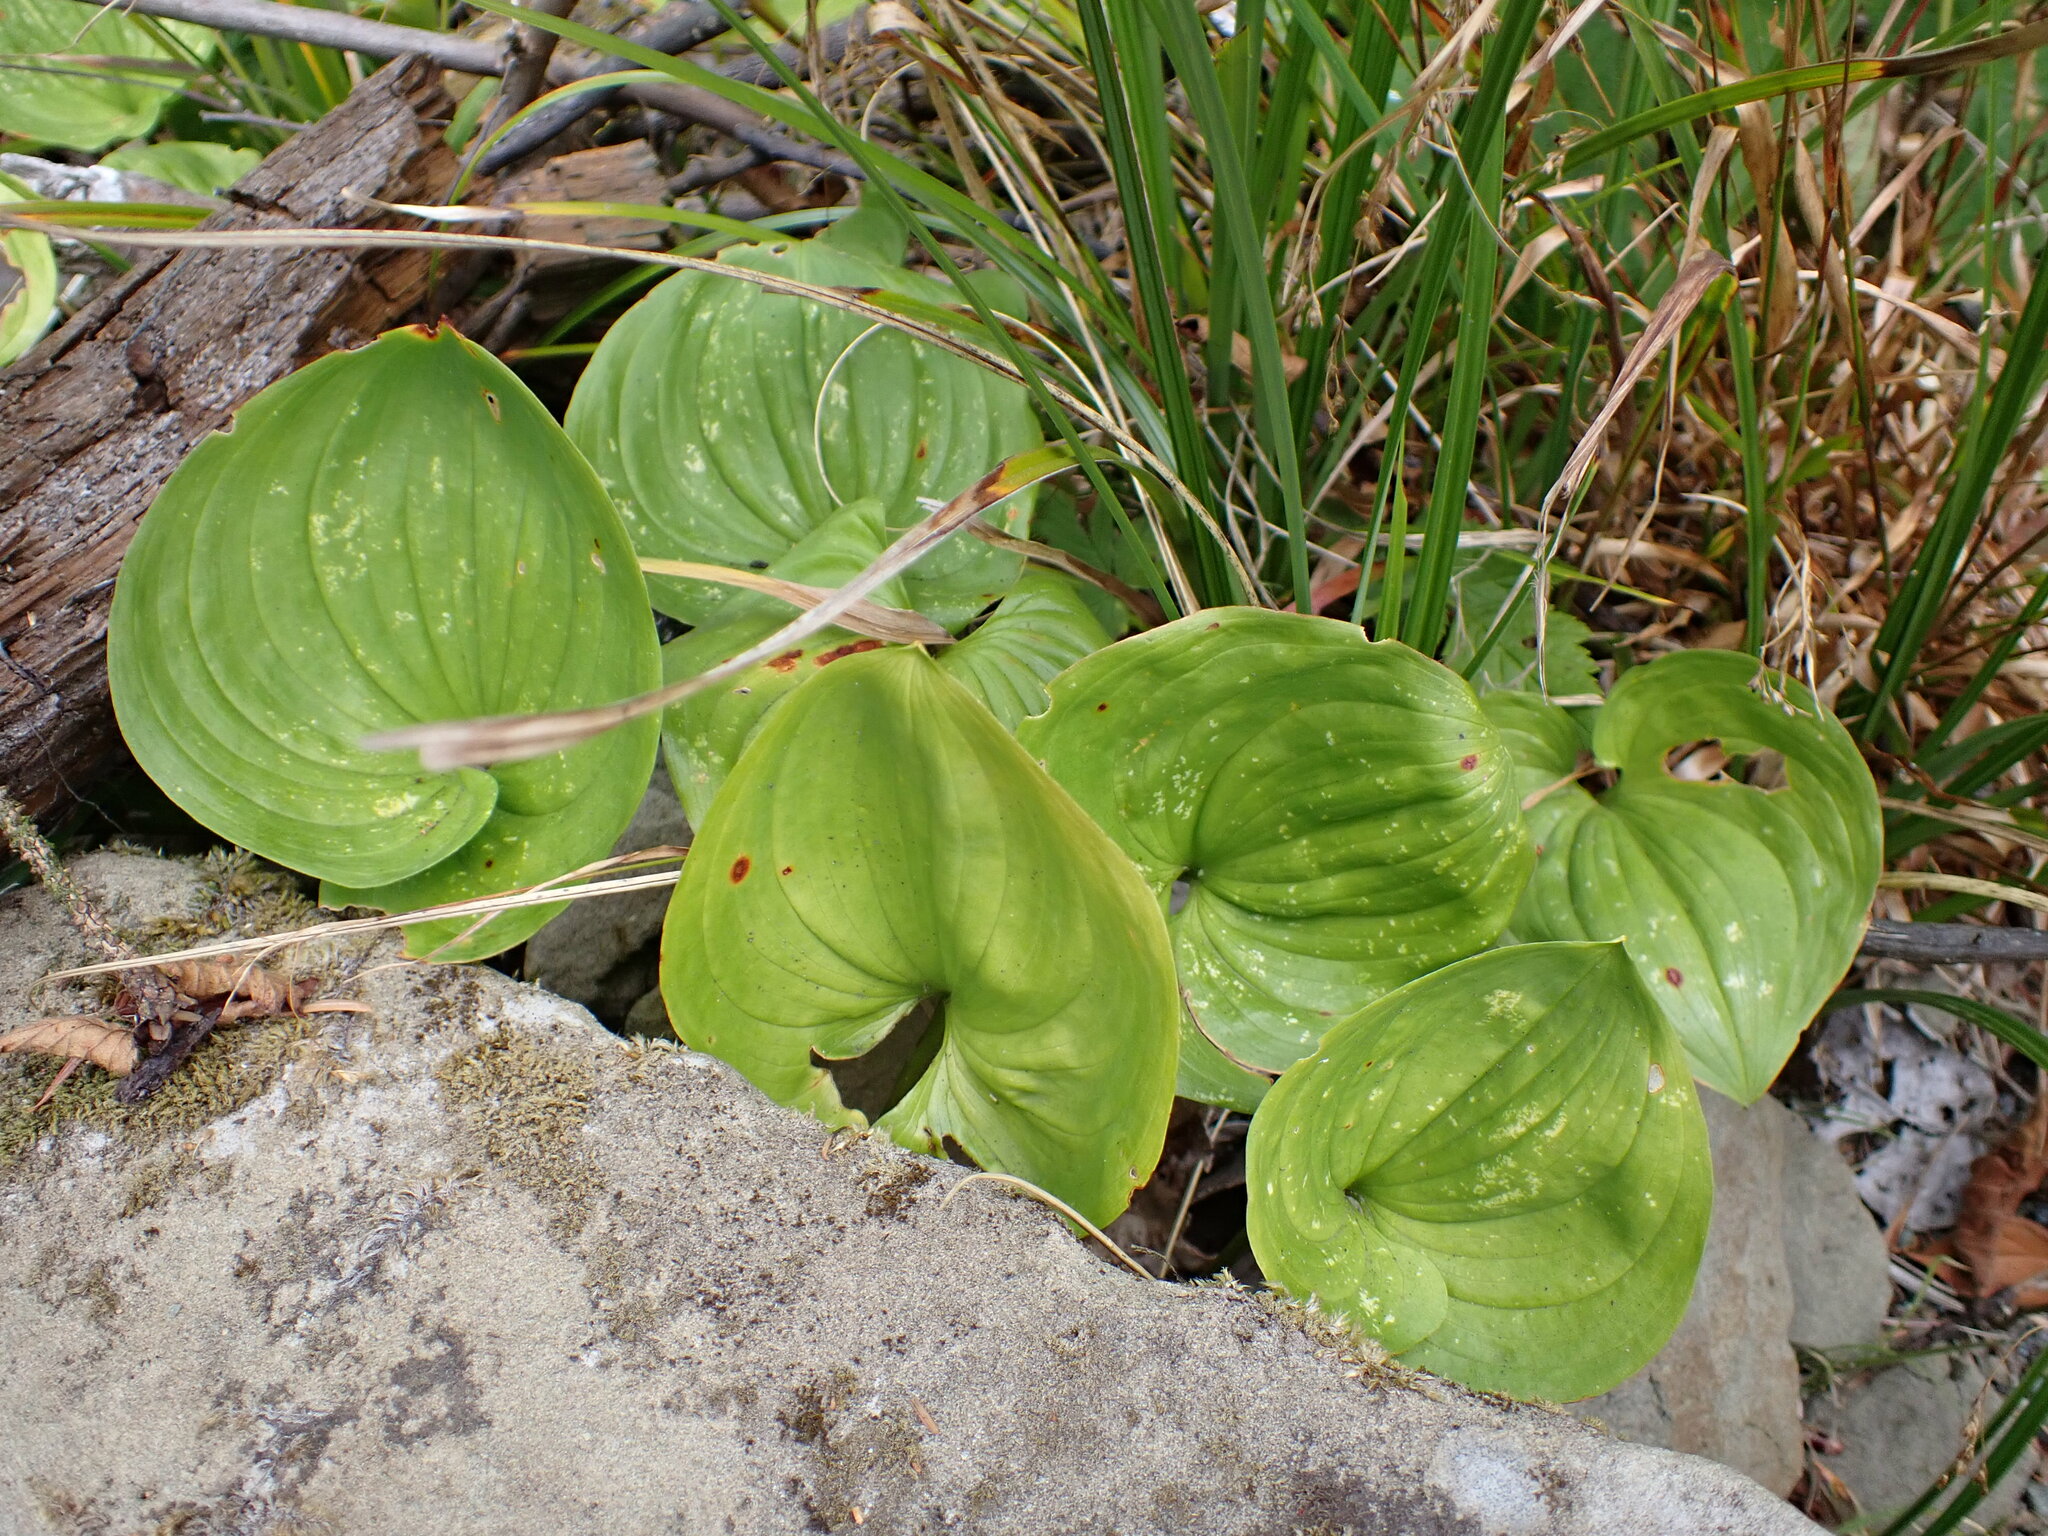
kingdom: Plantae
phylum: Tracheophyta
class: Liliopsida
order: Asparagales
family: Asparagaceae
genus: Maianthemum
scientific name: Maianthemum dilatatum
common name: False lily-of-the-valley
